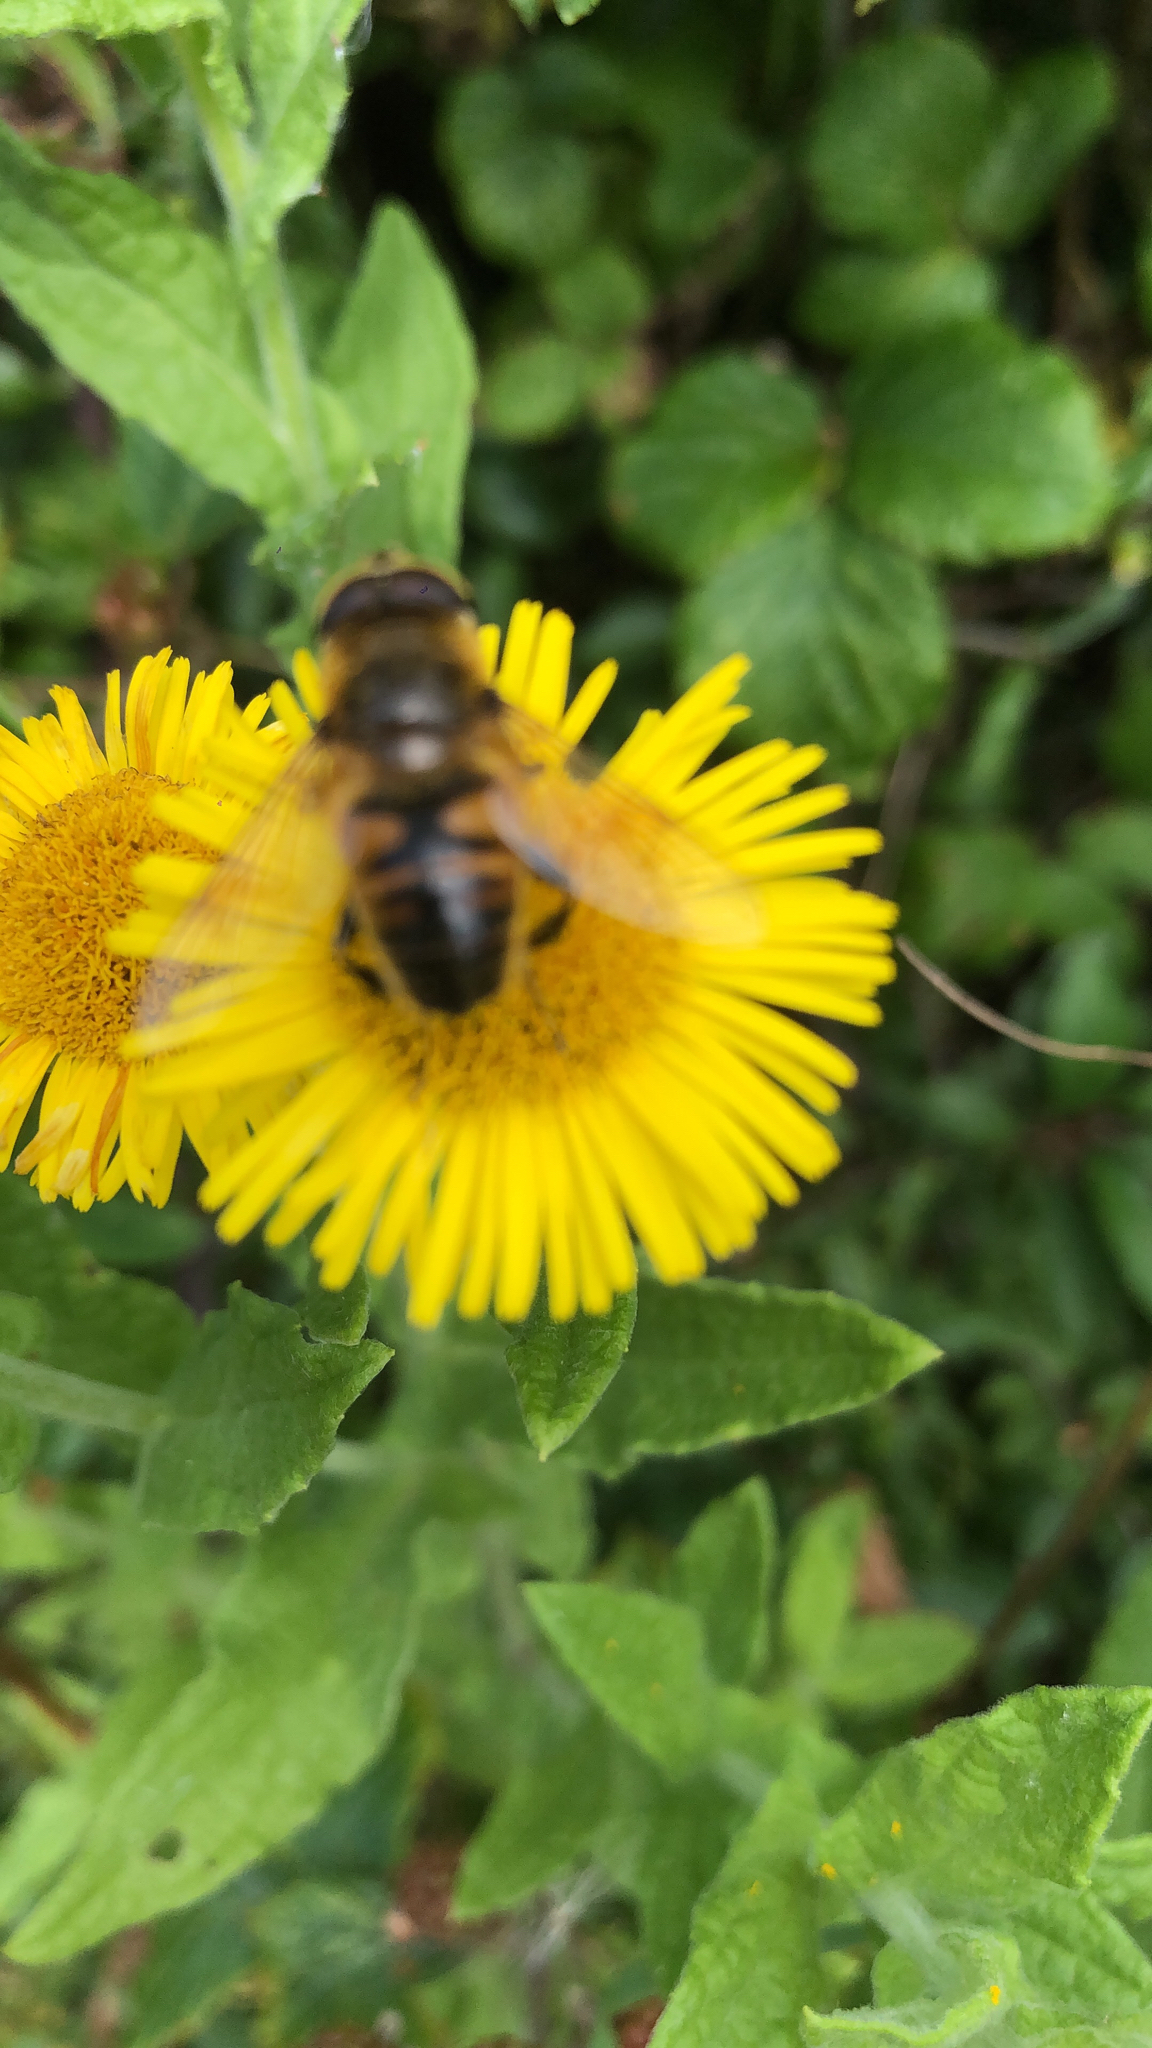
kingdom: Animalia
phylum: Arthropoda
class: Insecta
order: Diptera
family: Syrphidae
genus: Eristalis
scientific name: Eristalis tenax
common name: Drone fly
